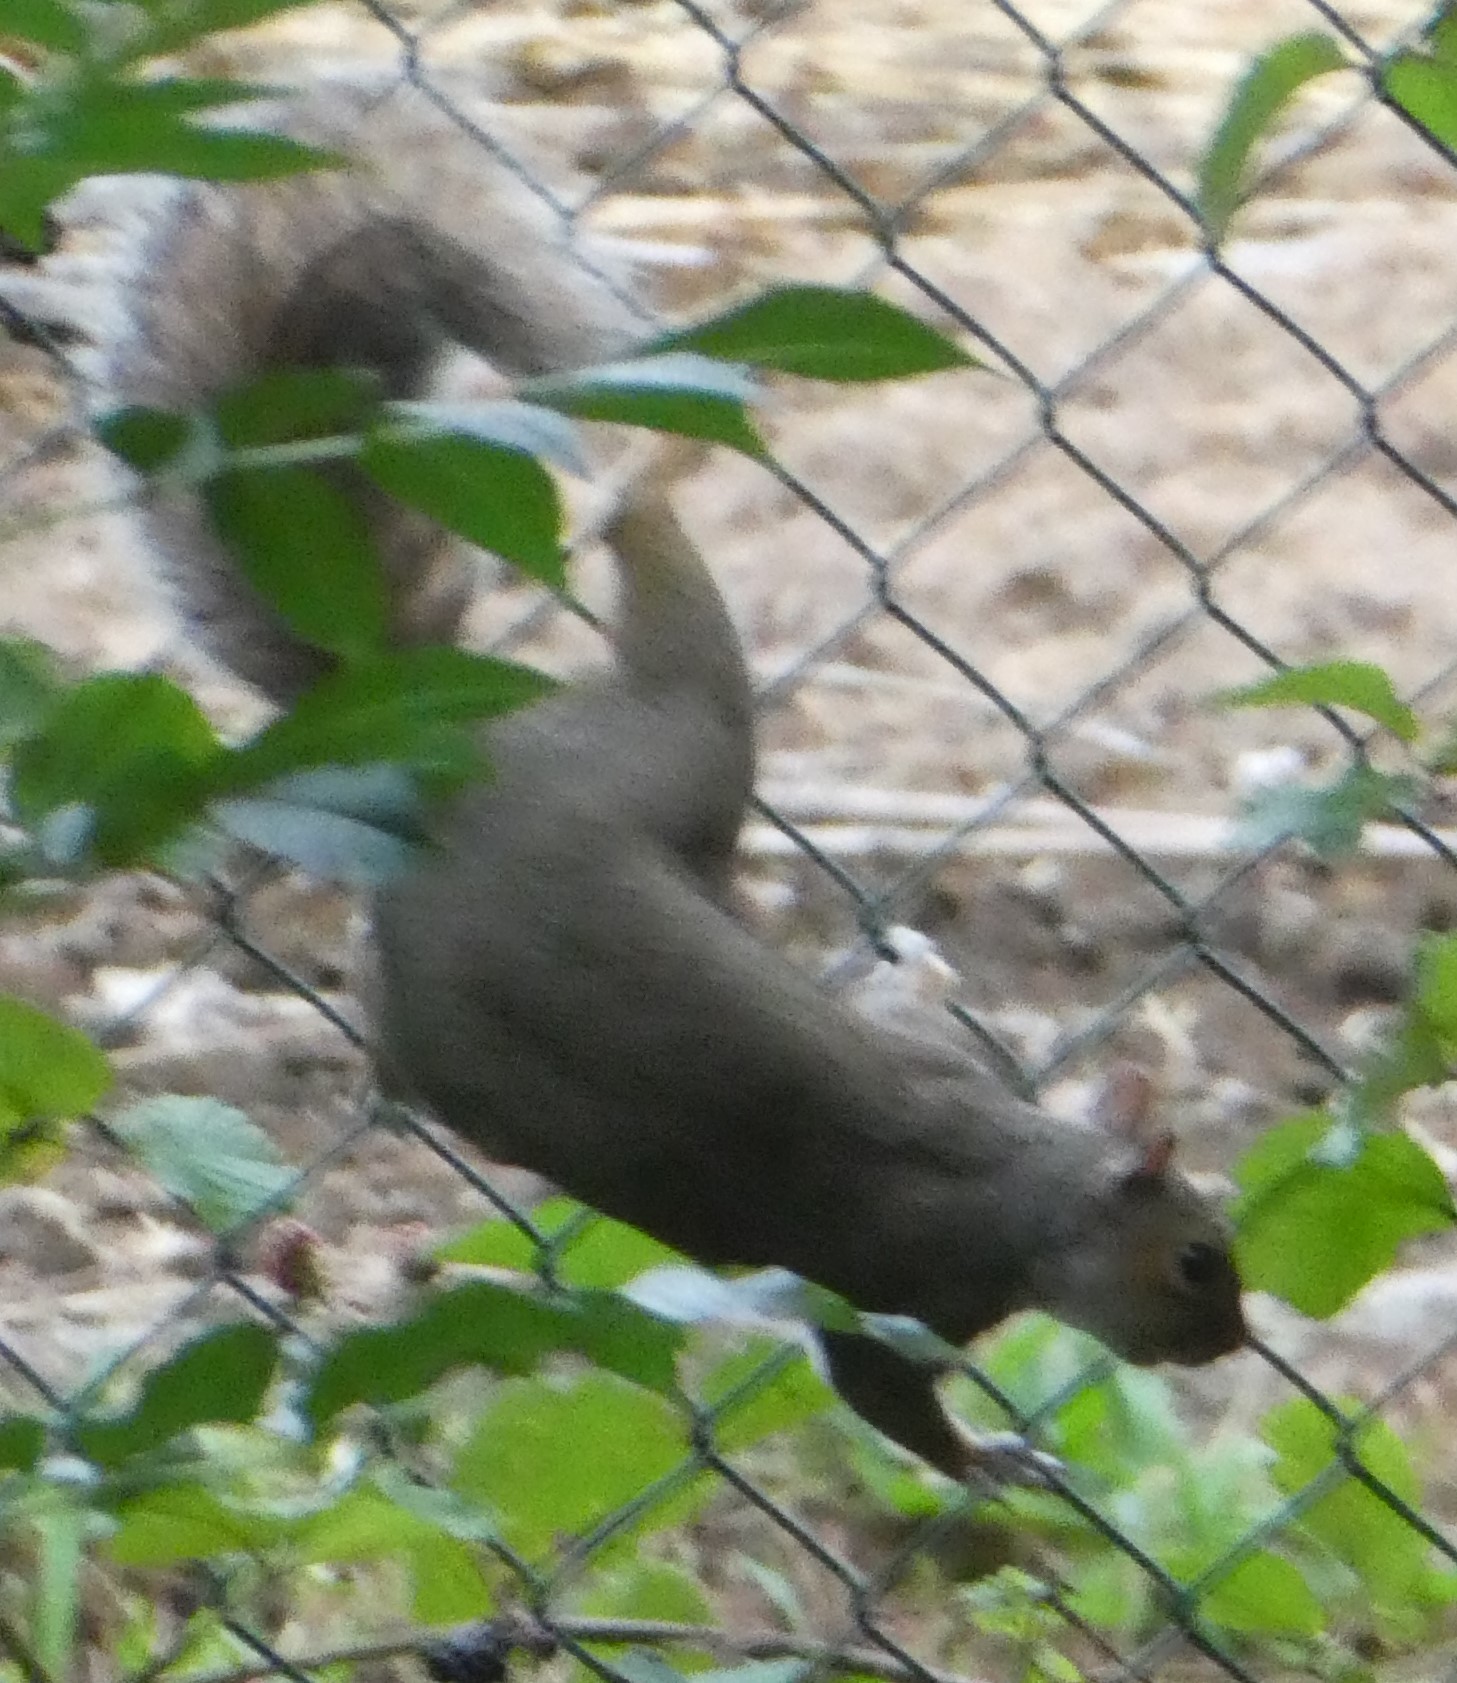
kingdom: Animalia
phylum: Chordata
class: Mammalia
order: Rodentia
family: Sciuridae
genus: Sciurus
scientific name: Sciurus carolinensis
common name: Eastern gray squirrel
